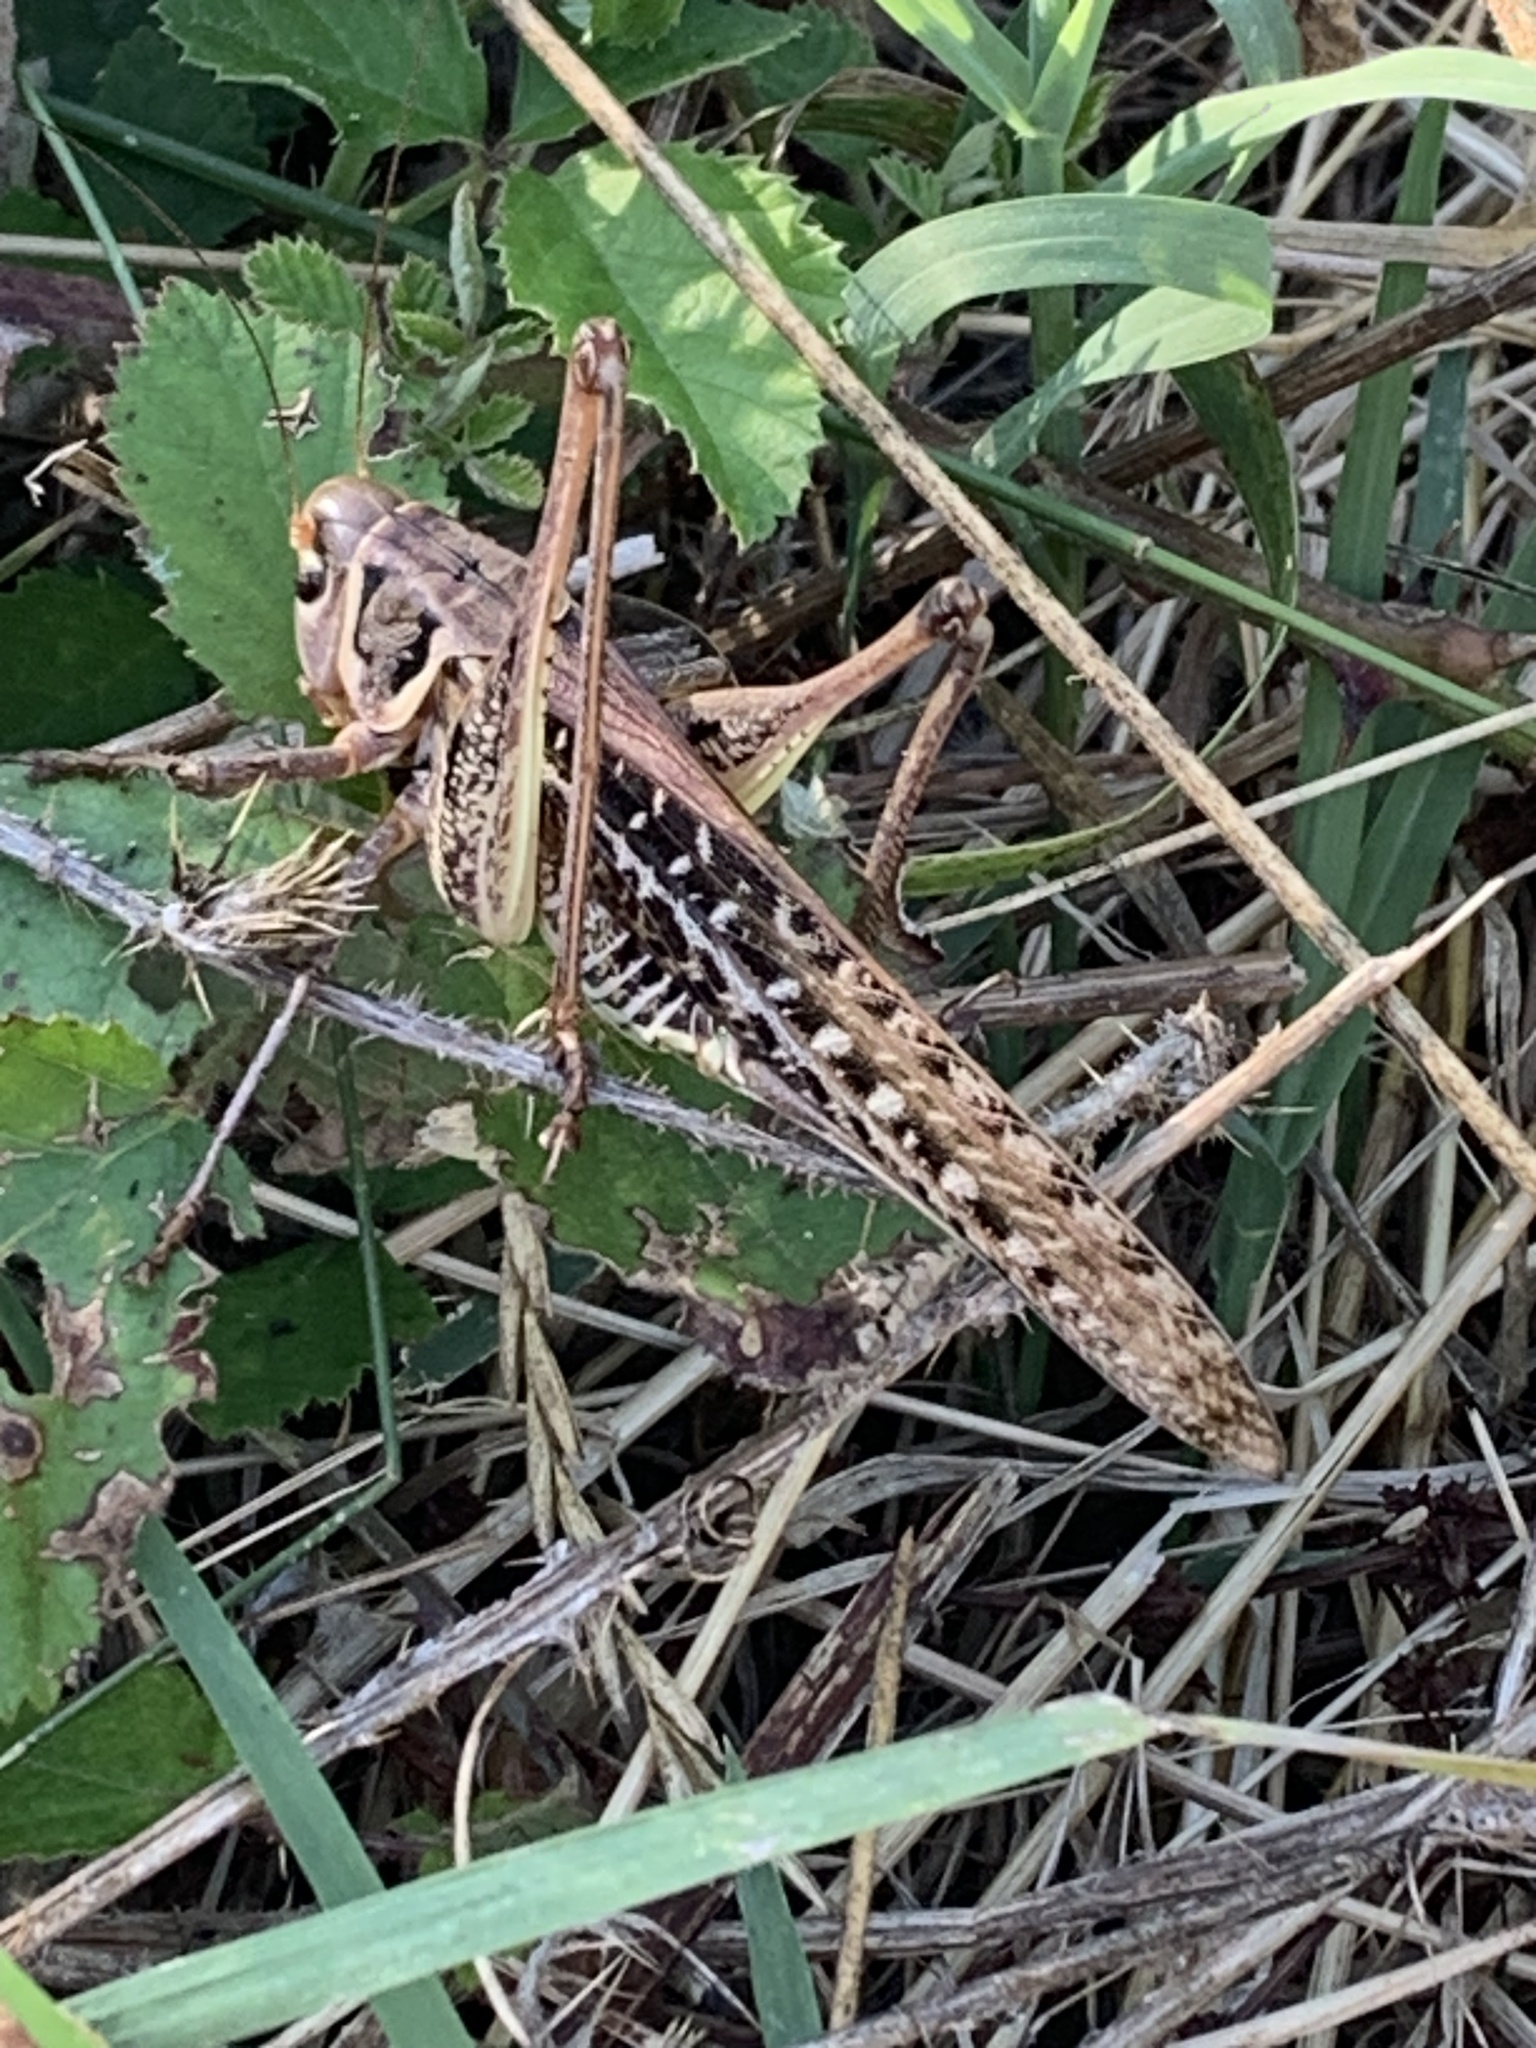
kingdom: Animalia
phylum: Arthropoda
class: Insecta
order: Orthoptera
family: Tettigoniidae
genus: Decticus
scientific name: Decticus albifrons
